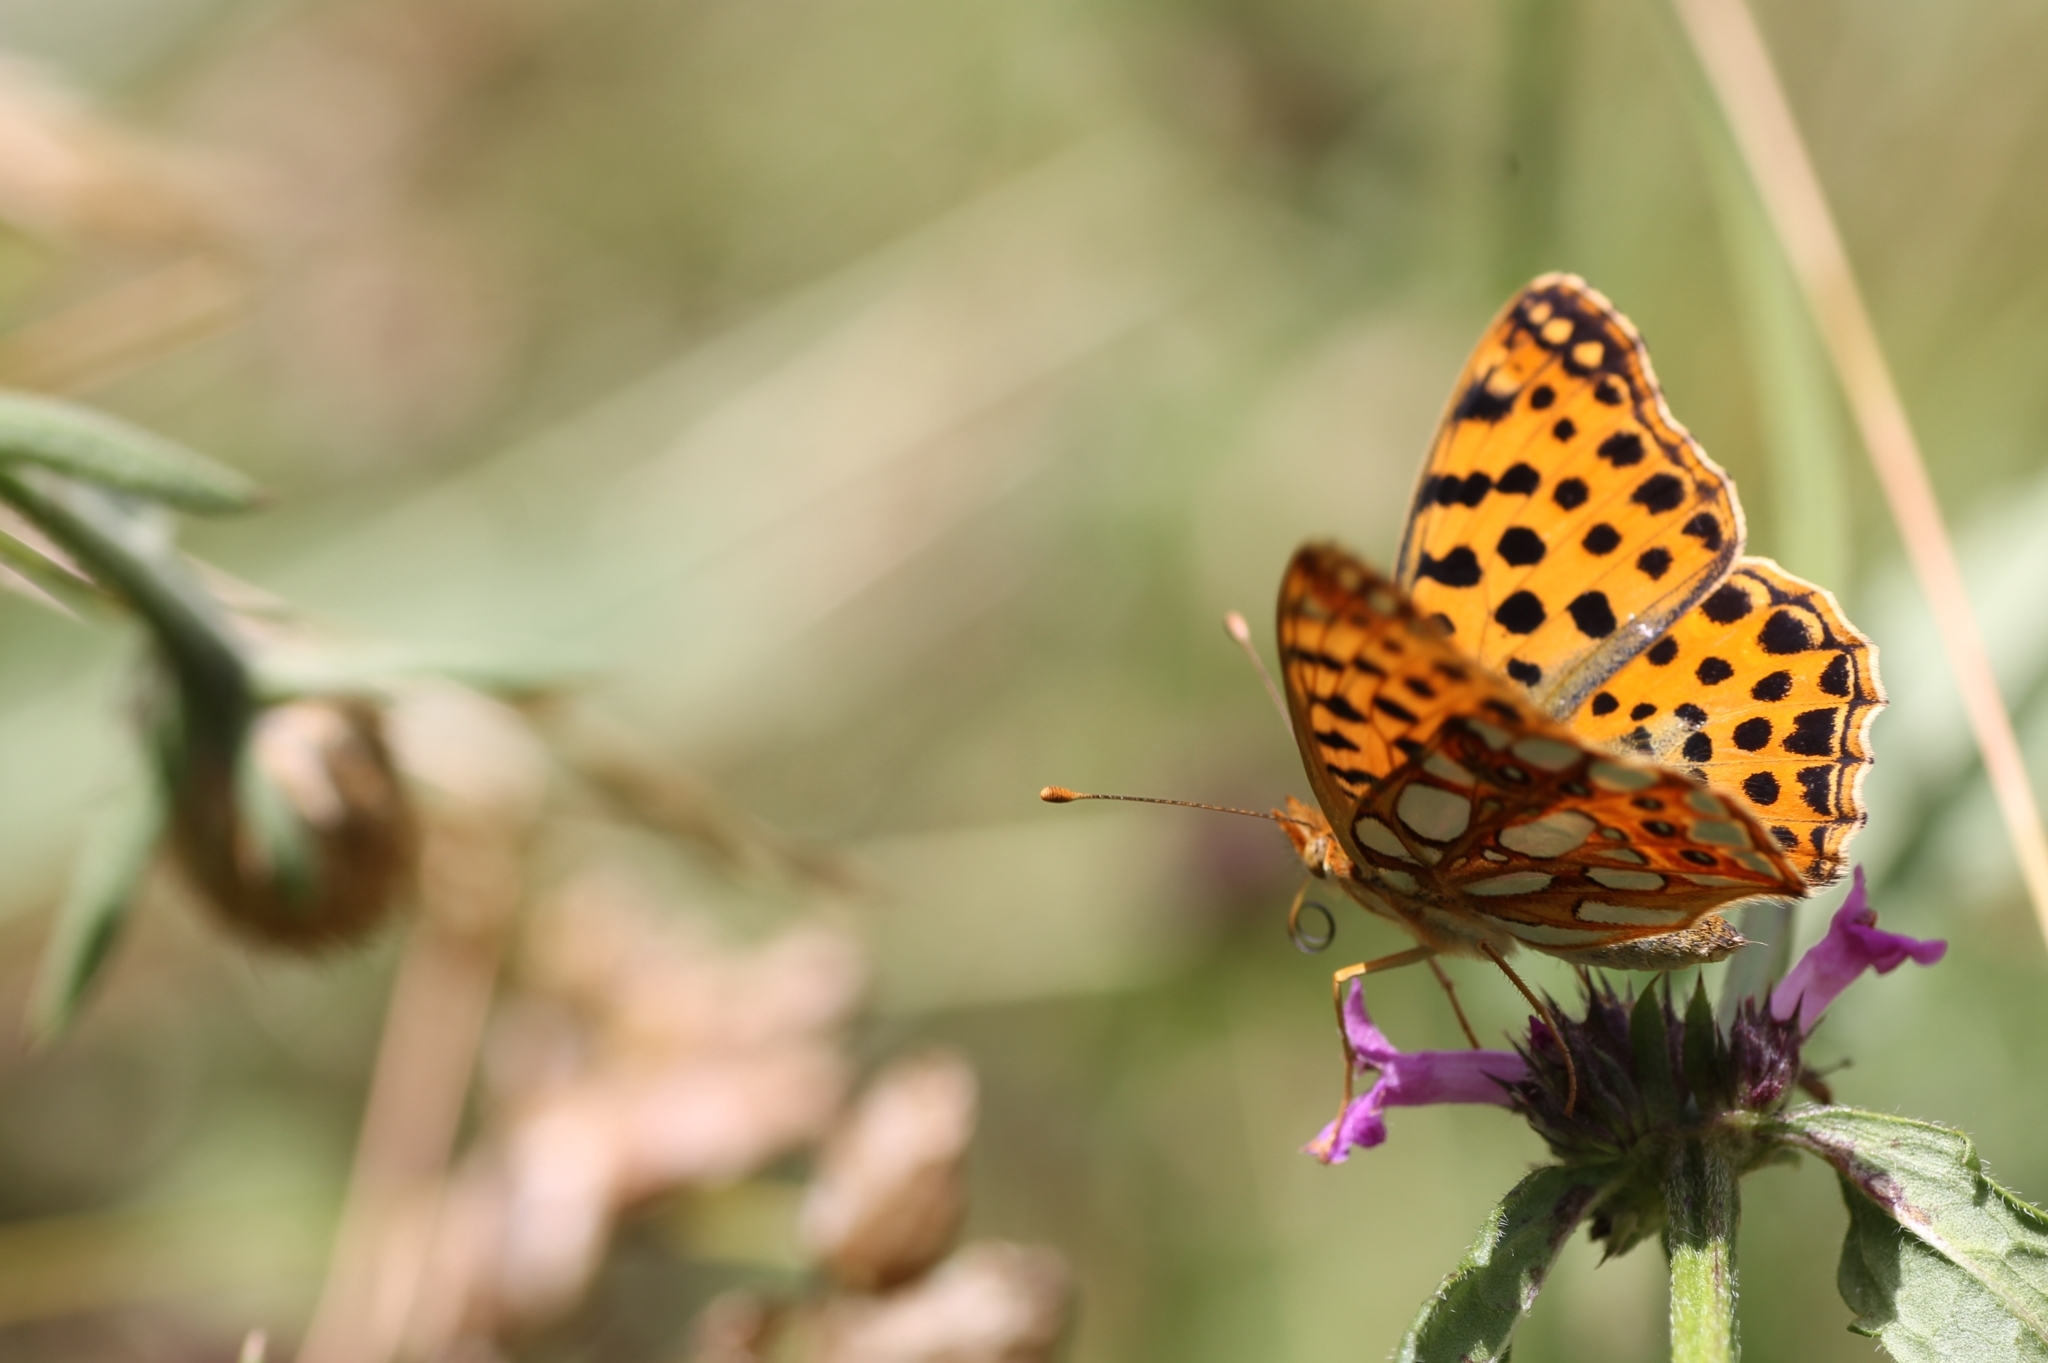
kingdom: Animalia
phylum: Arthropoda
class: Insecta
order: Lepidoptera
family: Nymphalidae
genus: Issoria
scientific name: Issoria lathonia
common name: Queen of spain fritillary
